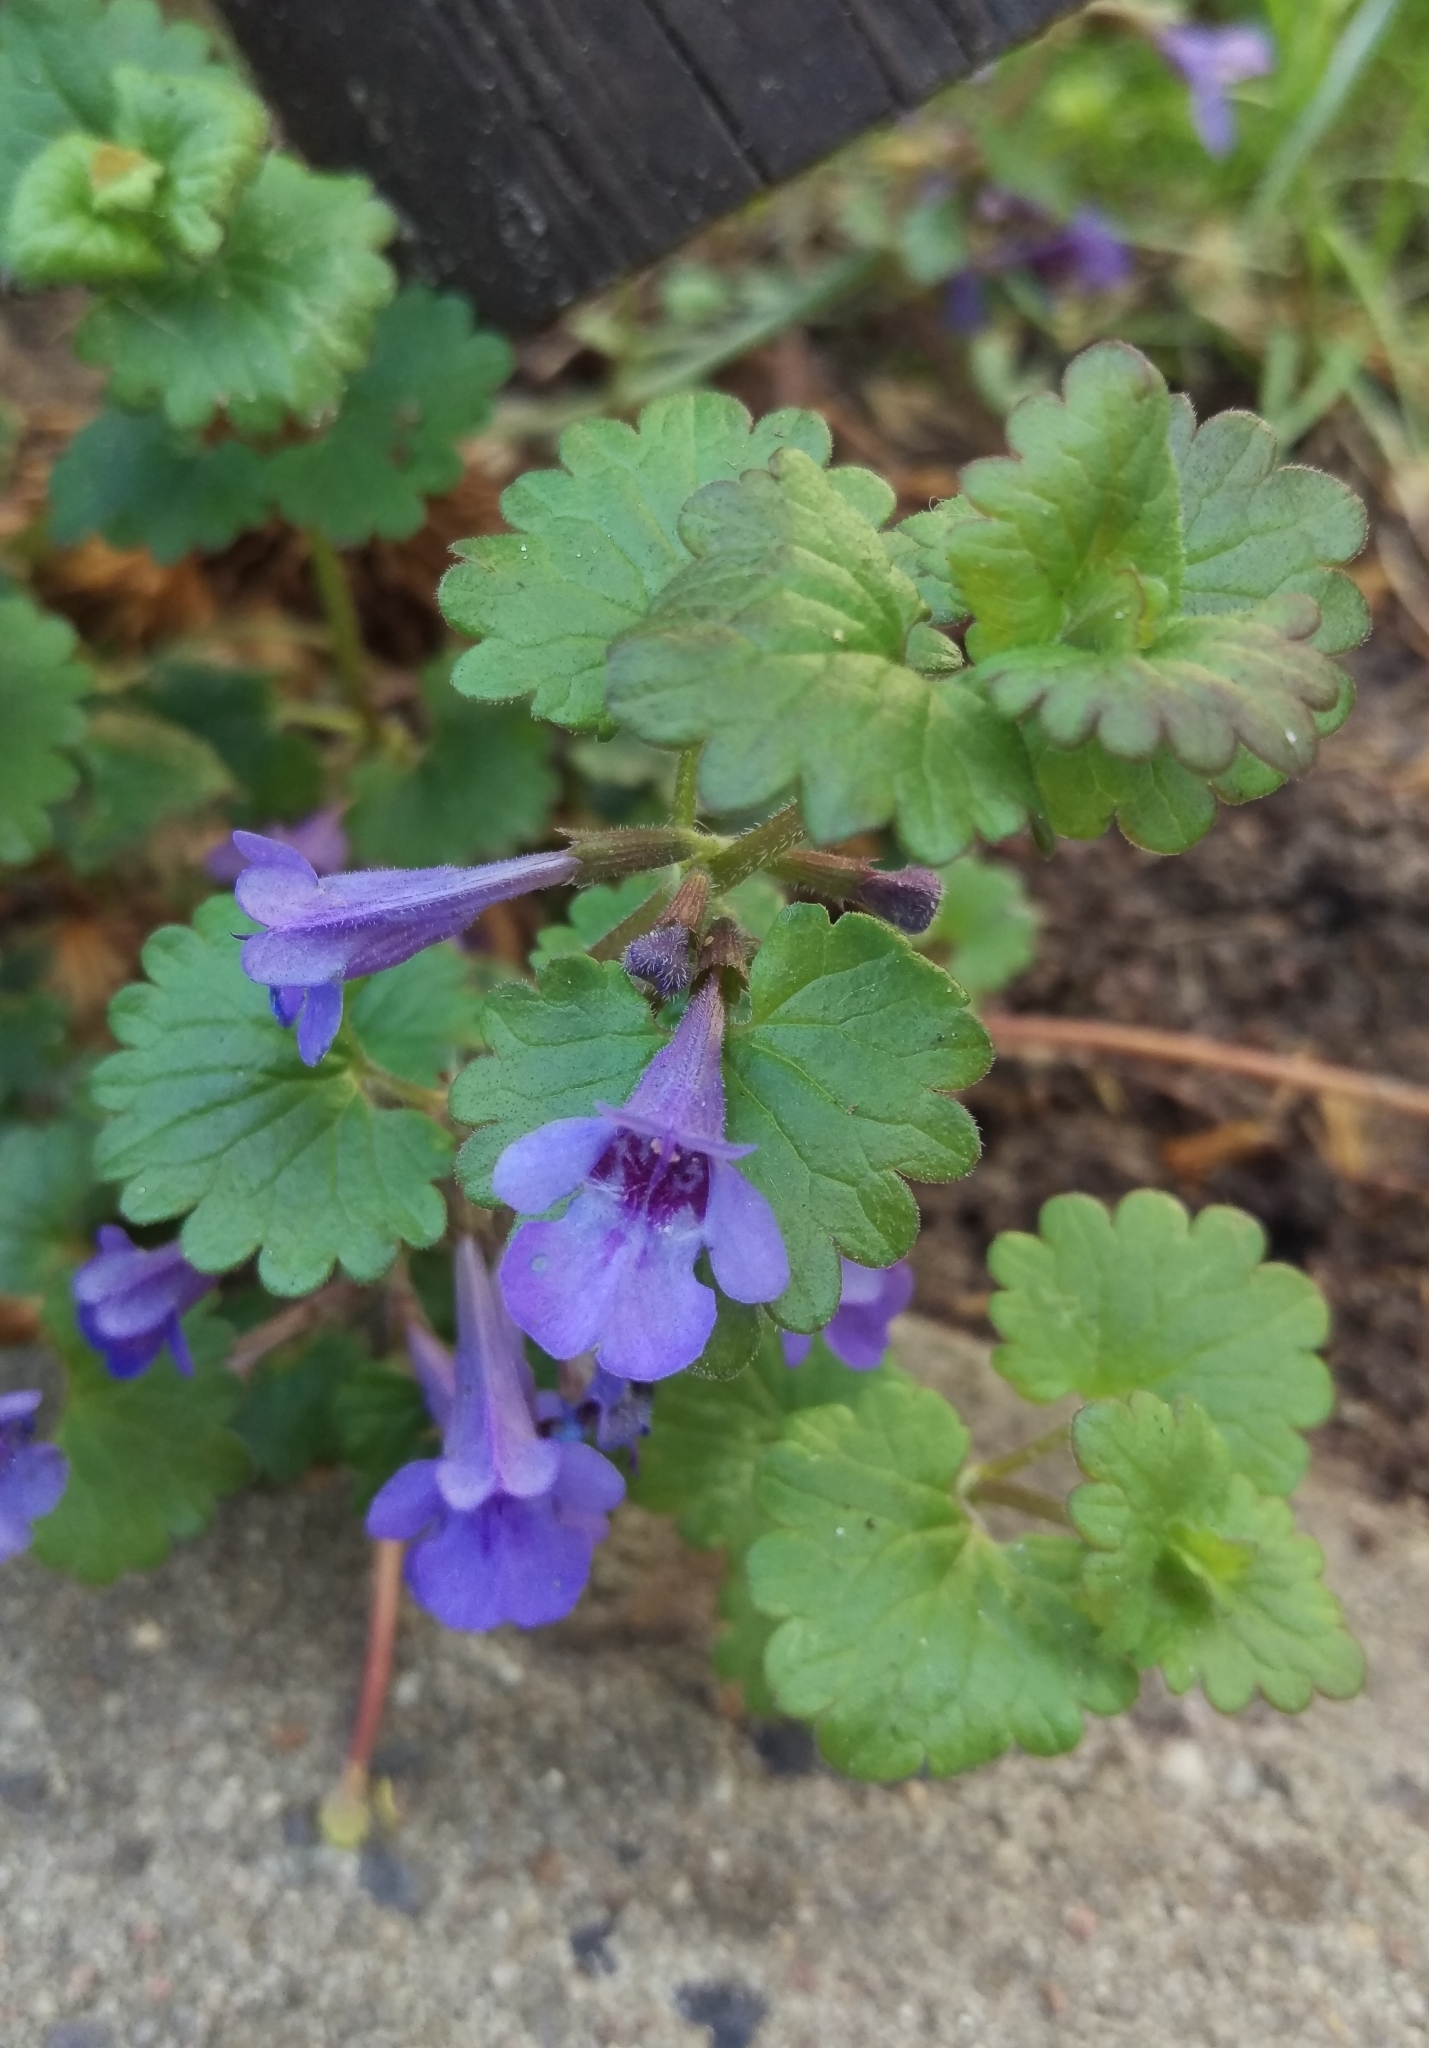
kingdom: Plantae
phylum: Tracheophyta
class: Magnoliopsida
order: Lamiales
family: Lamiaceae
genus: Glechoma
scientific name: Glechoma hederacea
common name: Ground ivy
